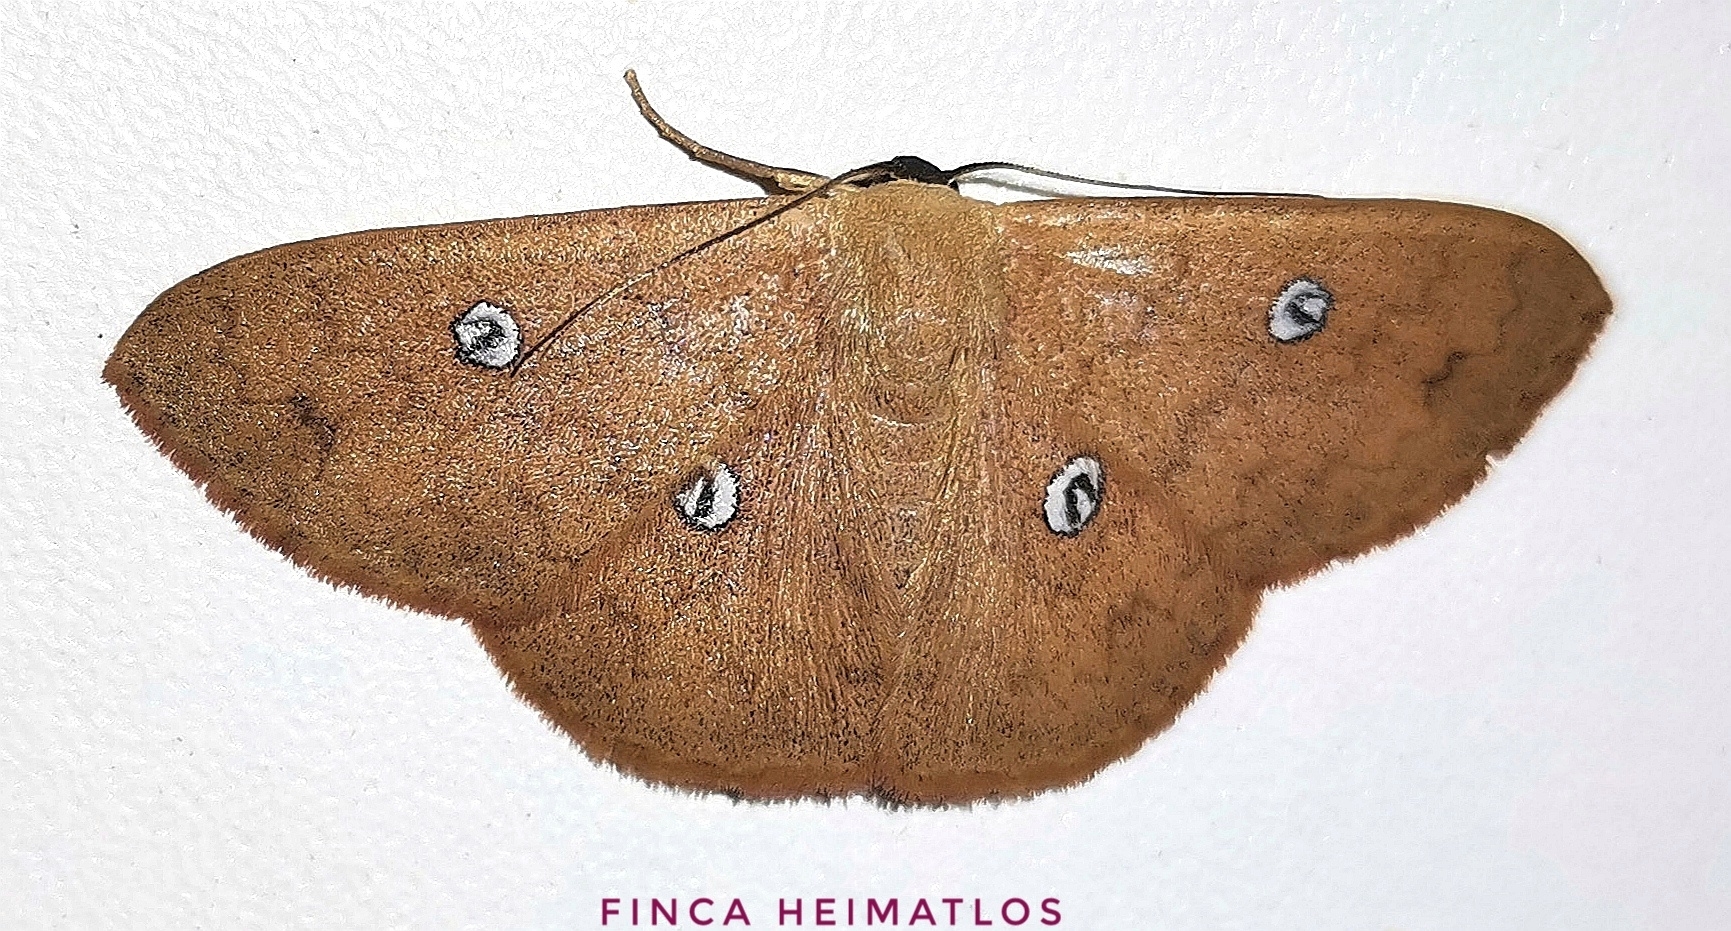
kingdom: Animalia
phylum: Arthropoda
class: Insecta
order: Lepidoptera
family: Geometridae
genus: Semaeopus
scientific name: Semaeopus illimitata
